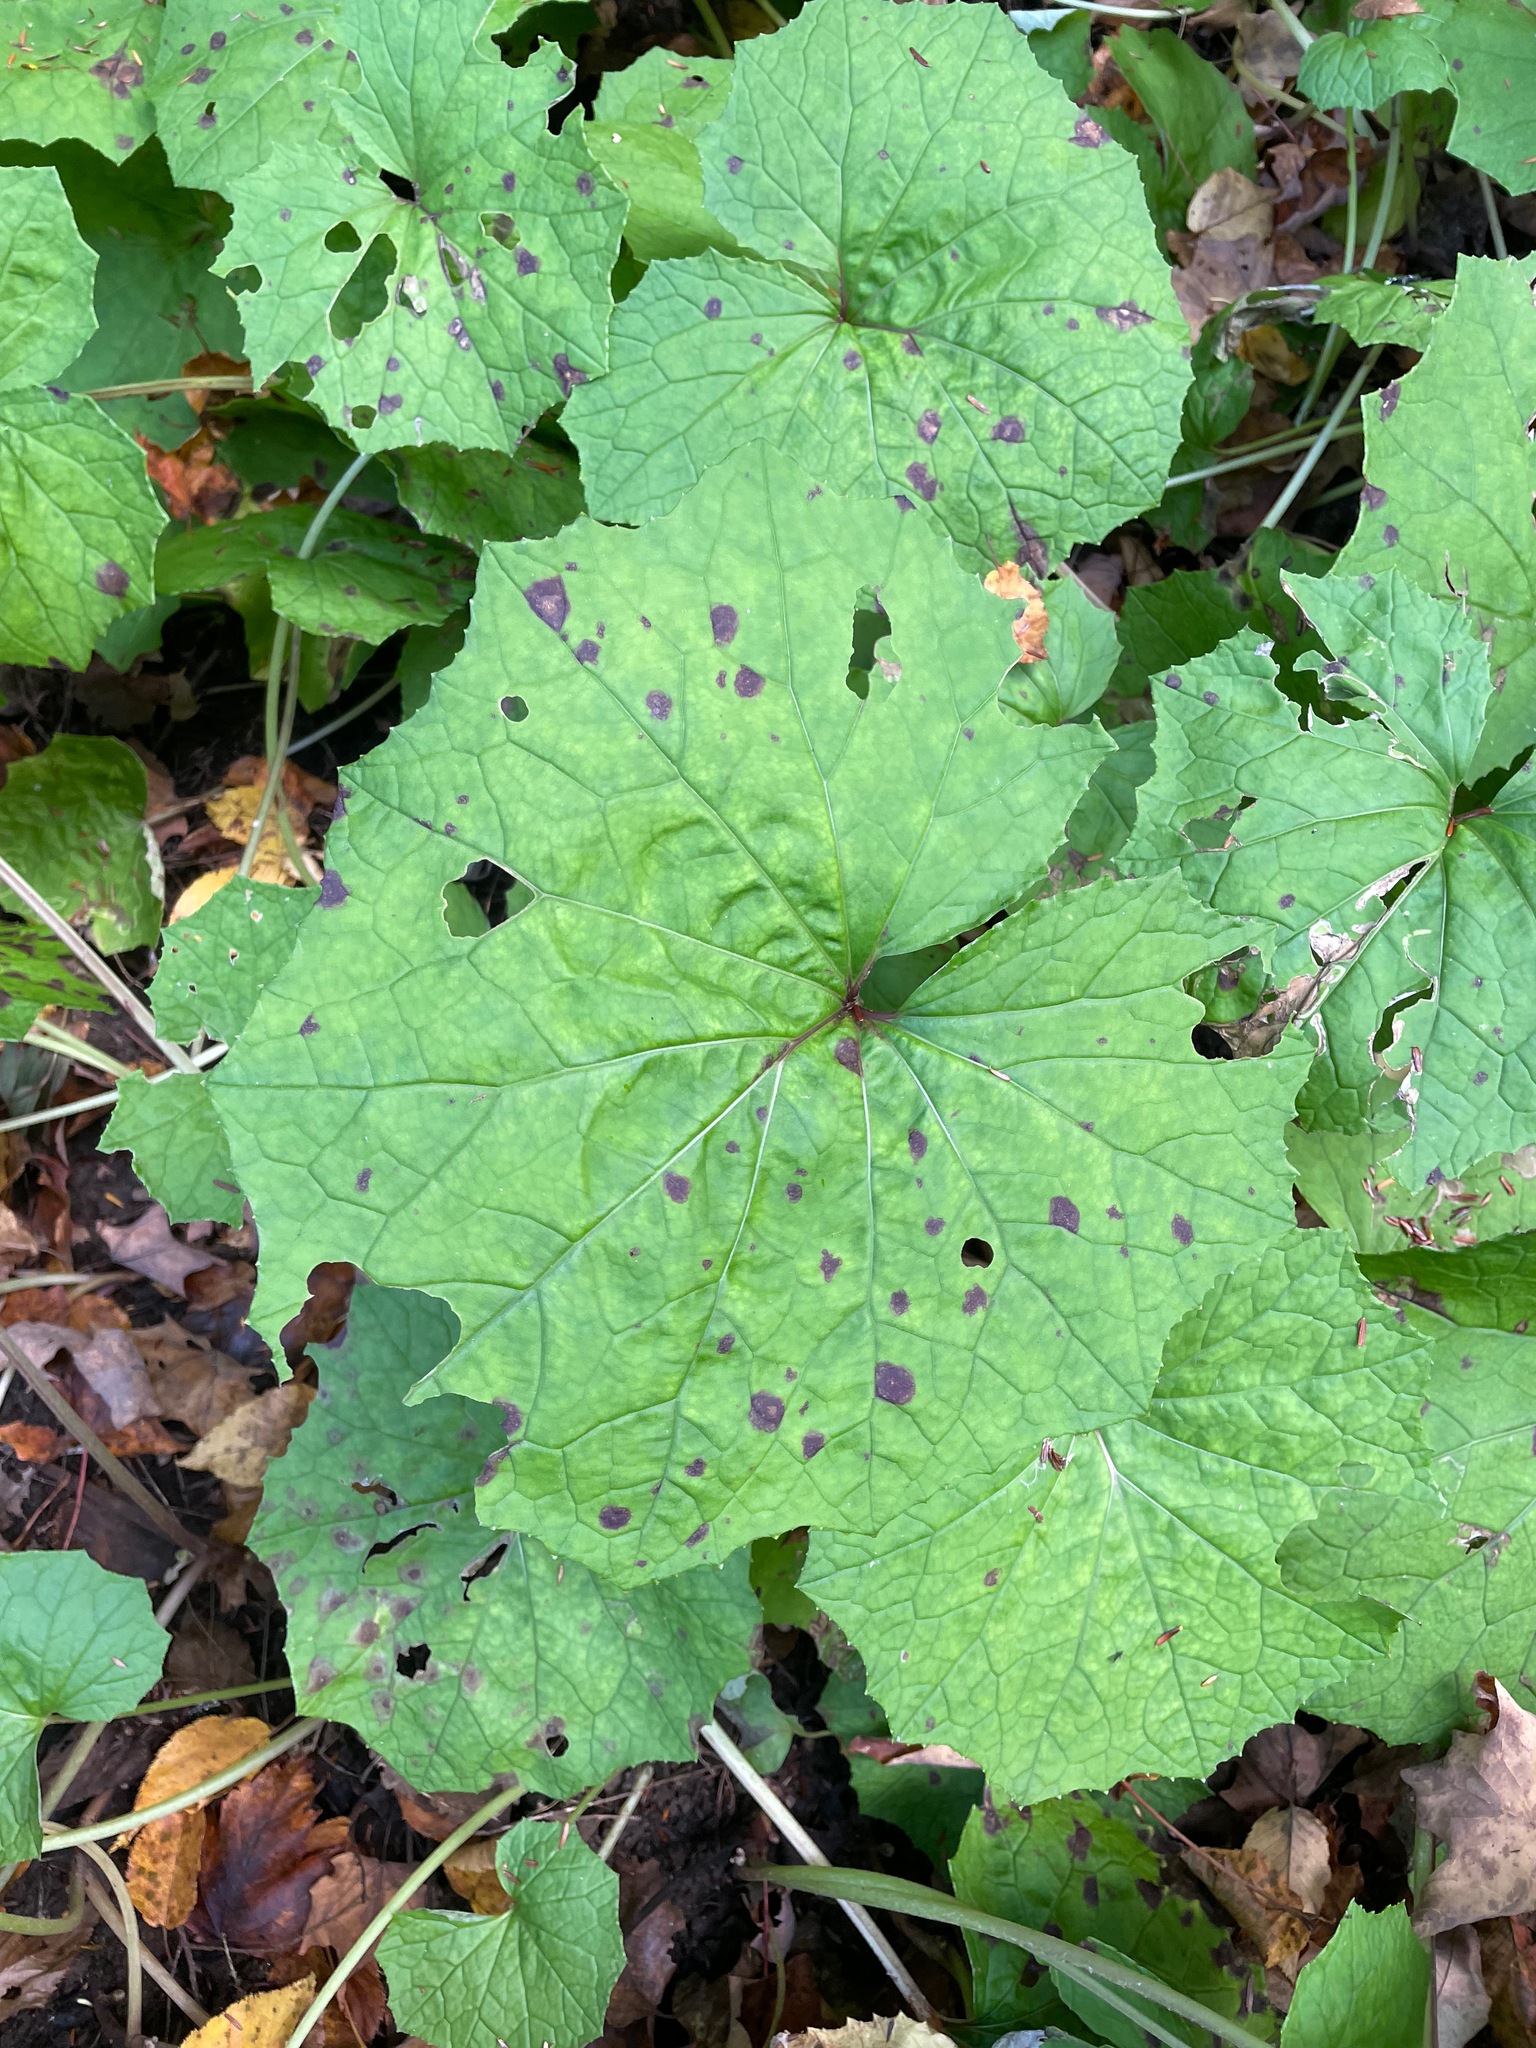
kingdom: Plantae
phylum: Tracheophyta
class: Magnoliopsida
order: Asterales
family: Asteraceae
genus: Tussilago
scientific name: Tussilago farfara
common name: Coltsfoot
